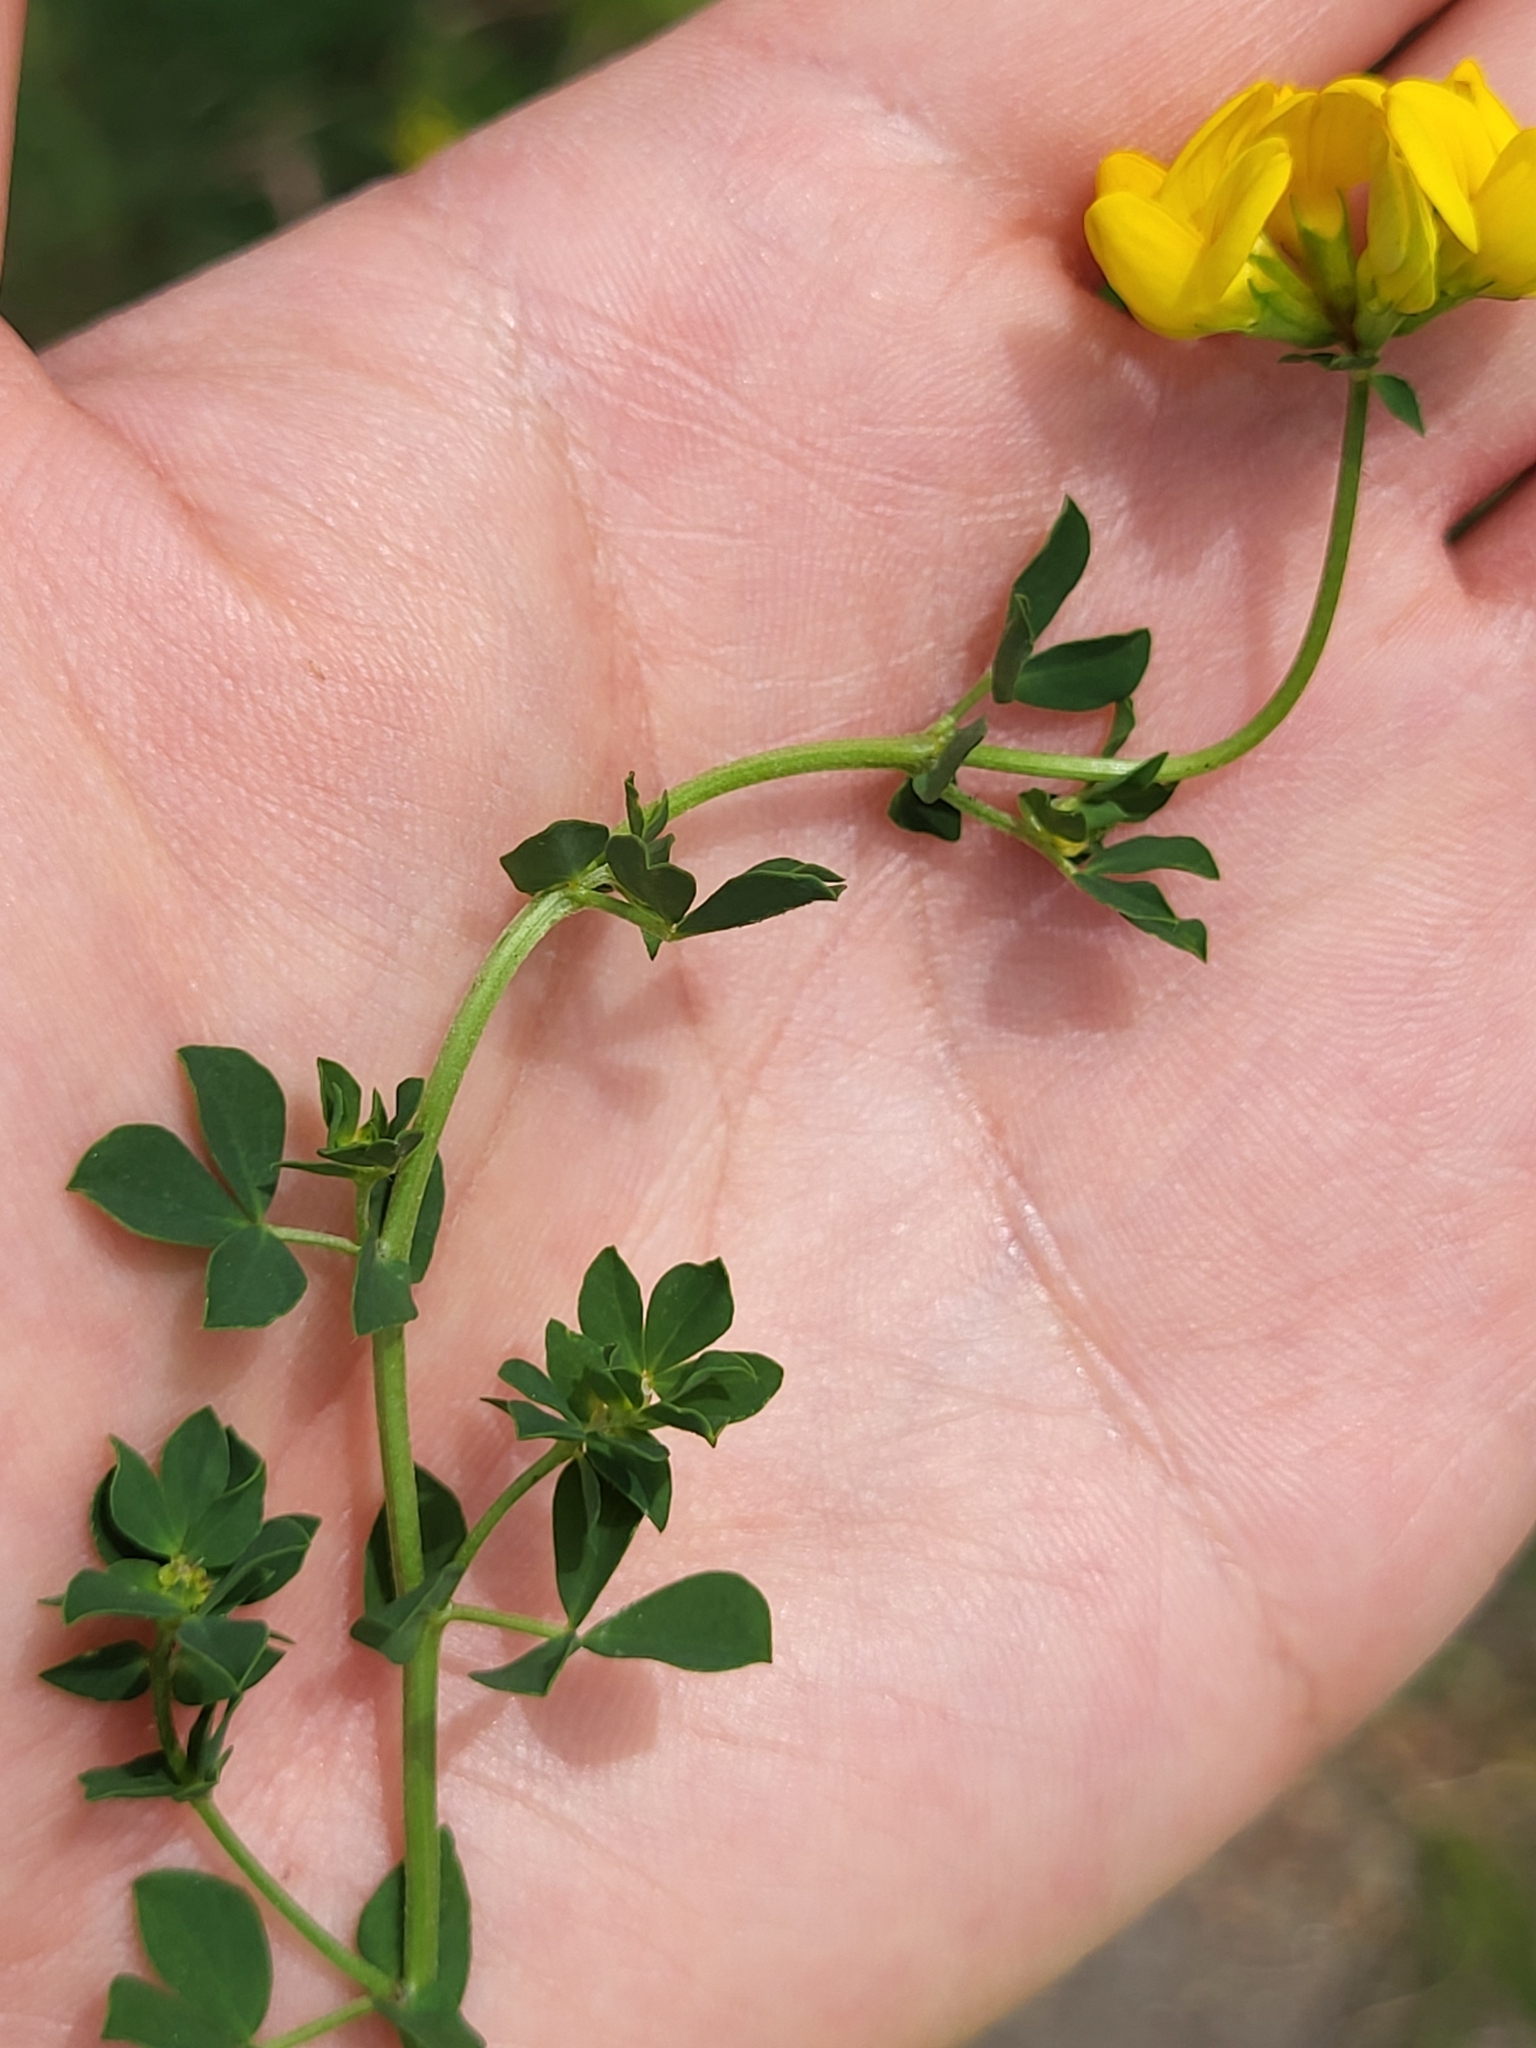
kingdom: Plantae
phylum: Tracheophyta
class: Magnoliopsida
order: Fabales
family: Fabaceae
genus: Lotus
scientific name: Lotus corniculatus
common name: Common bird's-foot-trefoil
